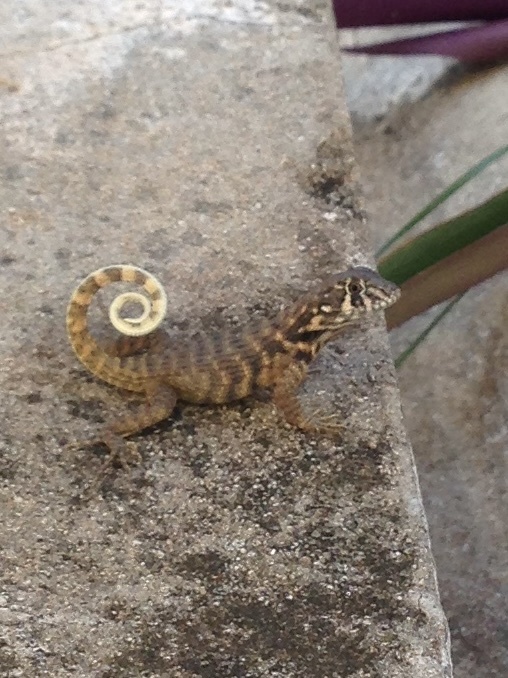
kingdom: Animalia
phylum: Chordata
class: Squamata
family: Leiocephalidae
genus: Leiocephalus
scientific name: Leiocephalus carinatus
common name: Northern curly-tailed lizard
